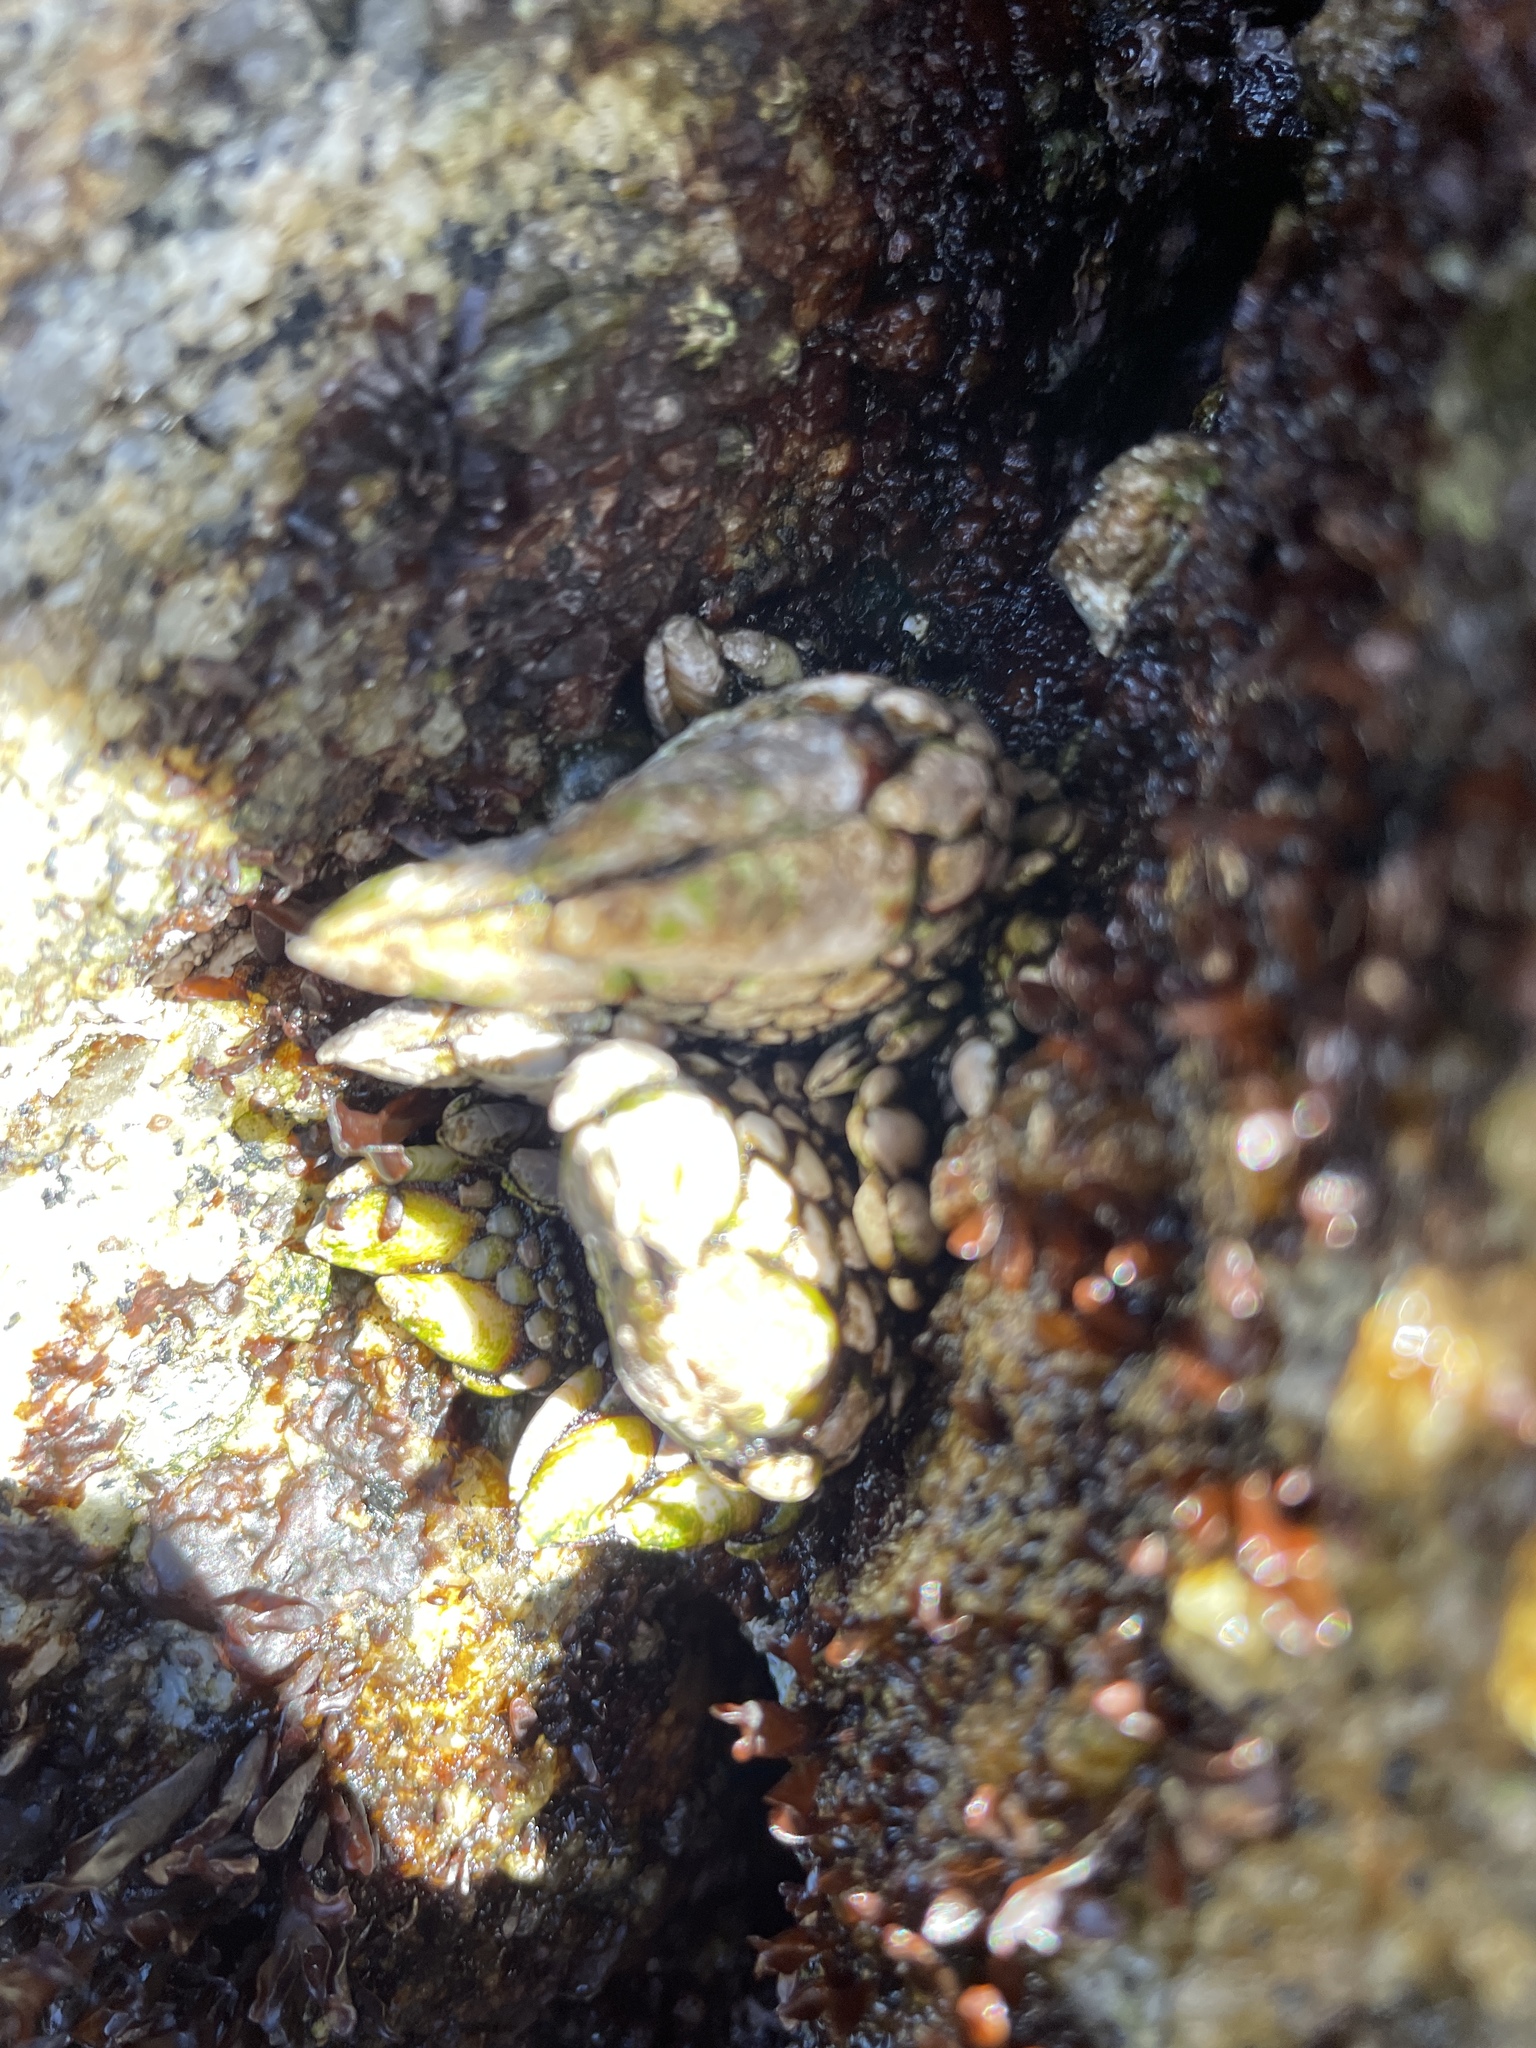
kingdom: Animalia
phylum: Arthropoda
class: Maxillopoda
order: Pedunculata
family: Pollicipedidae
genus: Pollicipes
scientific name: Pollicipes polymerus
